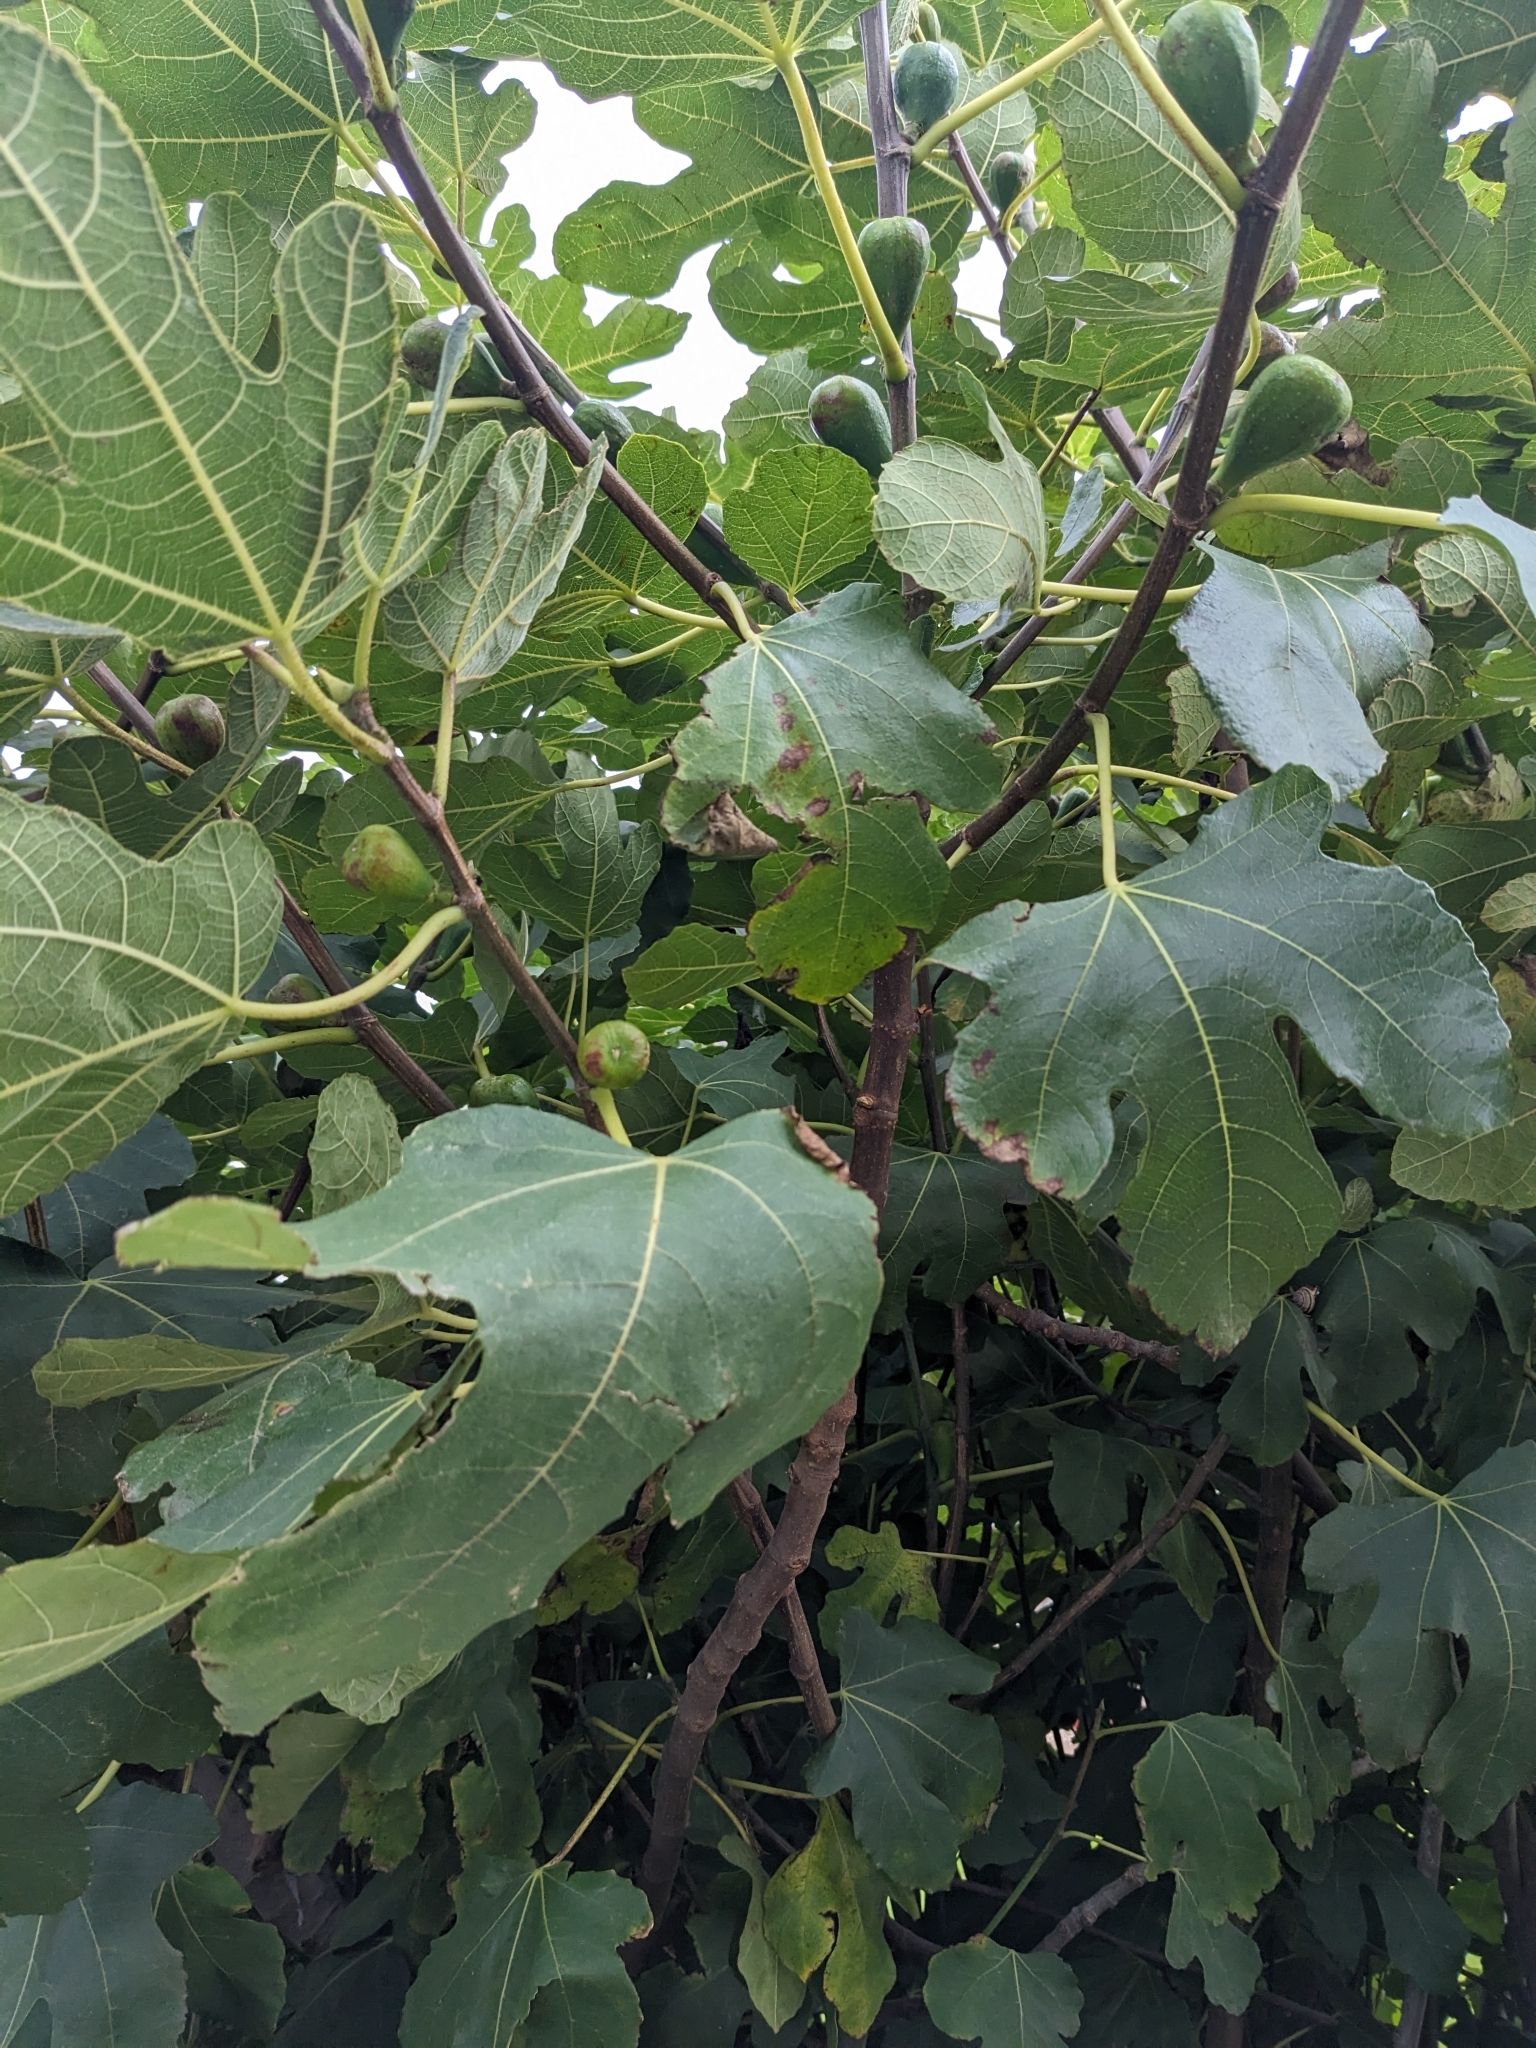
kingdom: Plantae
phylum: Tracheophyta
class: Magnoliopsida
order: Rosales
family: Moraceae
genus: Ficus
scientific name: Ficus carica
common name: Fig
